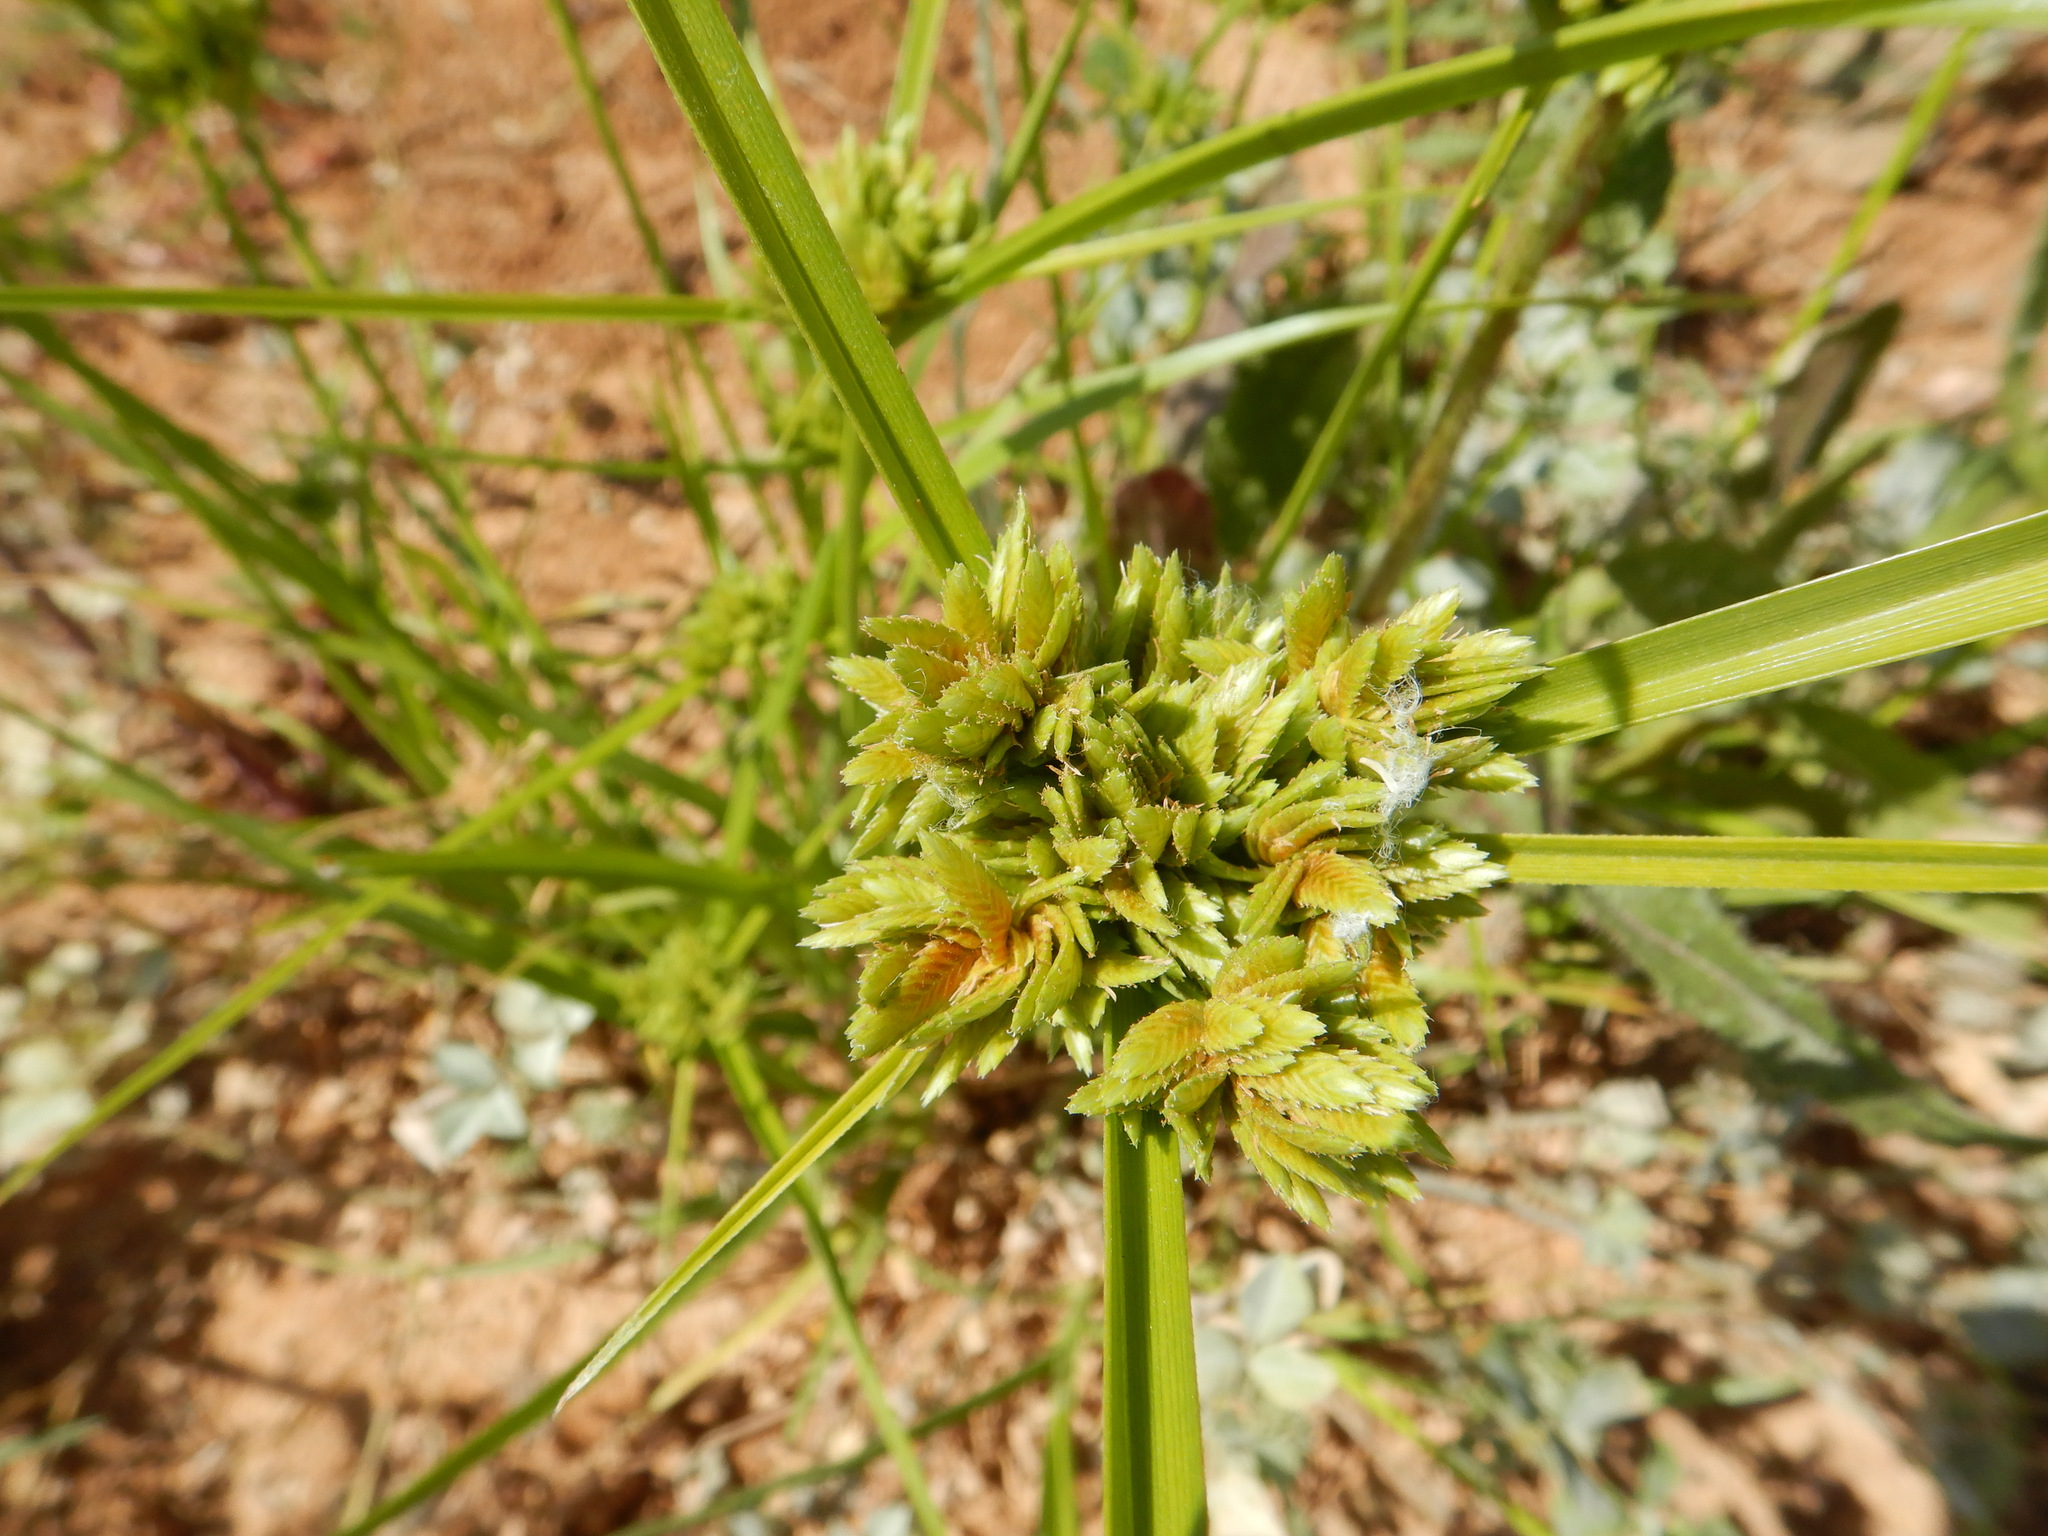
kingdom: Plantae
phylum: Tracheophyta
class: Liliopsida
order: Poales
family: Cyperaceae
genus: Cyperus
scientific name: Cyperus eragrostis
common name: Tall flatsedge
